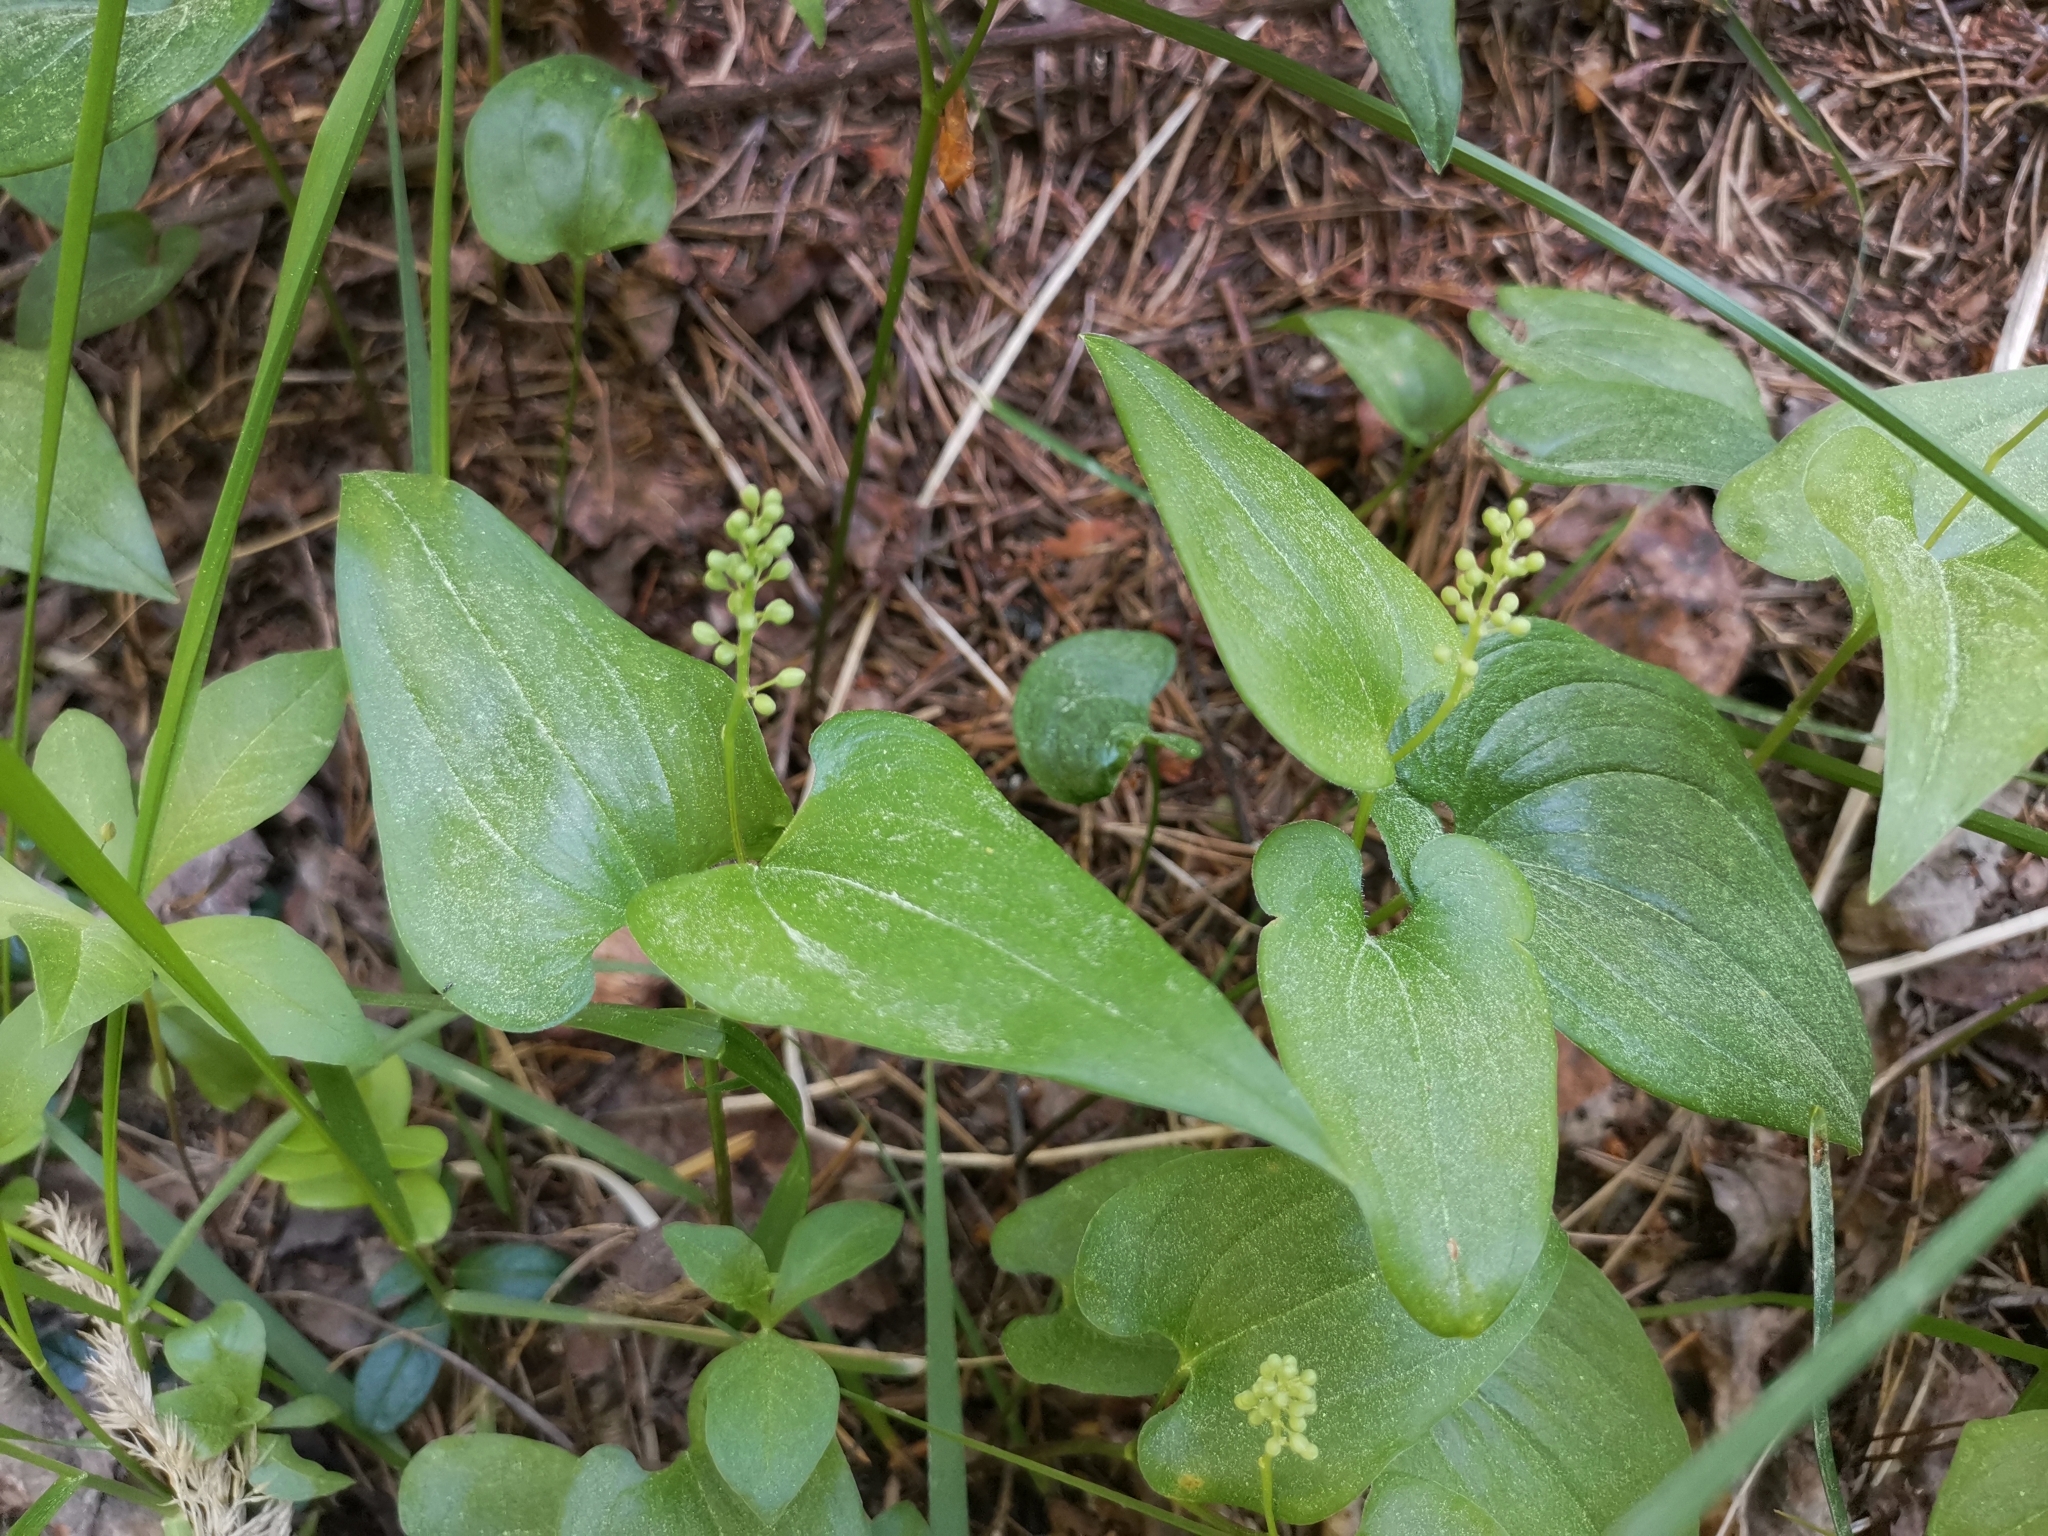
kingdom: Plantae
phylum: Tracheophyta
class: Liliopsida
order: Asparagales
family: Asparagaceae
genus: Maianthemum
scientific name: Maianthemum bifolium
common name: May lily
